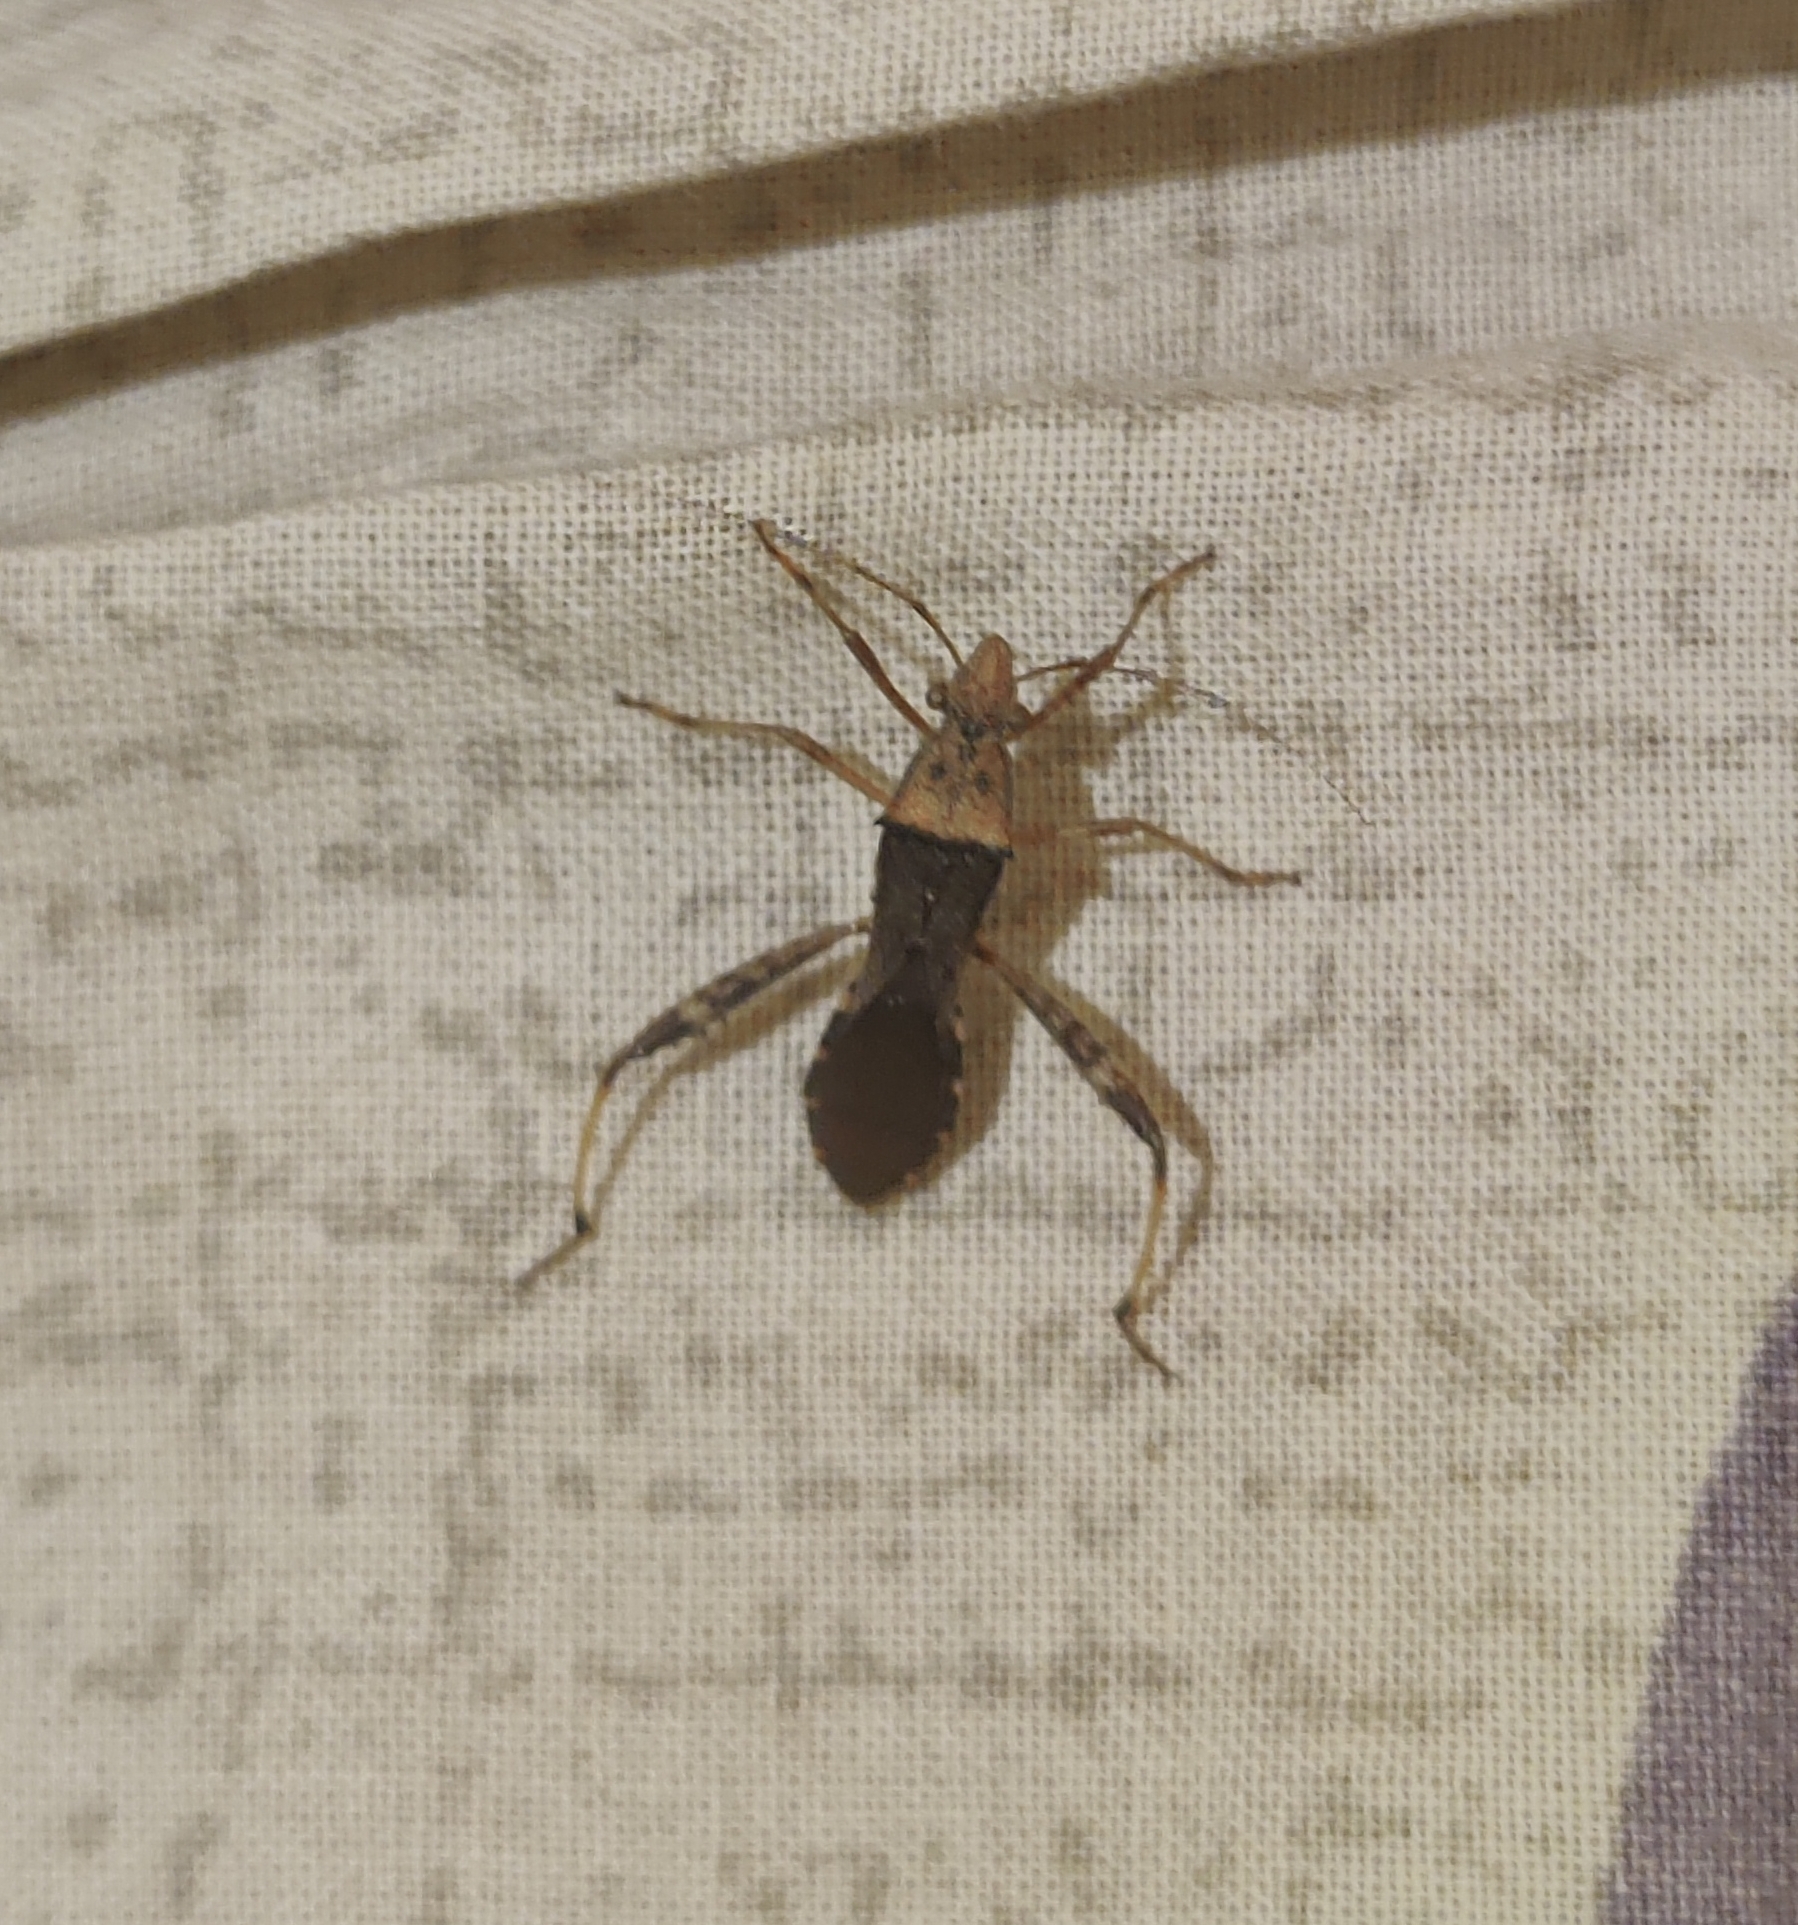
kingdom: Animalia
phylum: Arthropoda
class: Insecta
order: Hemiptera
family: Alydidae
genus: Riptortus
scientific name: Riptortus pedestris
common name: Bean bug
